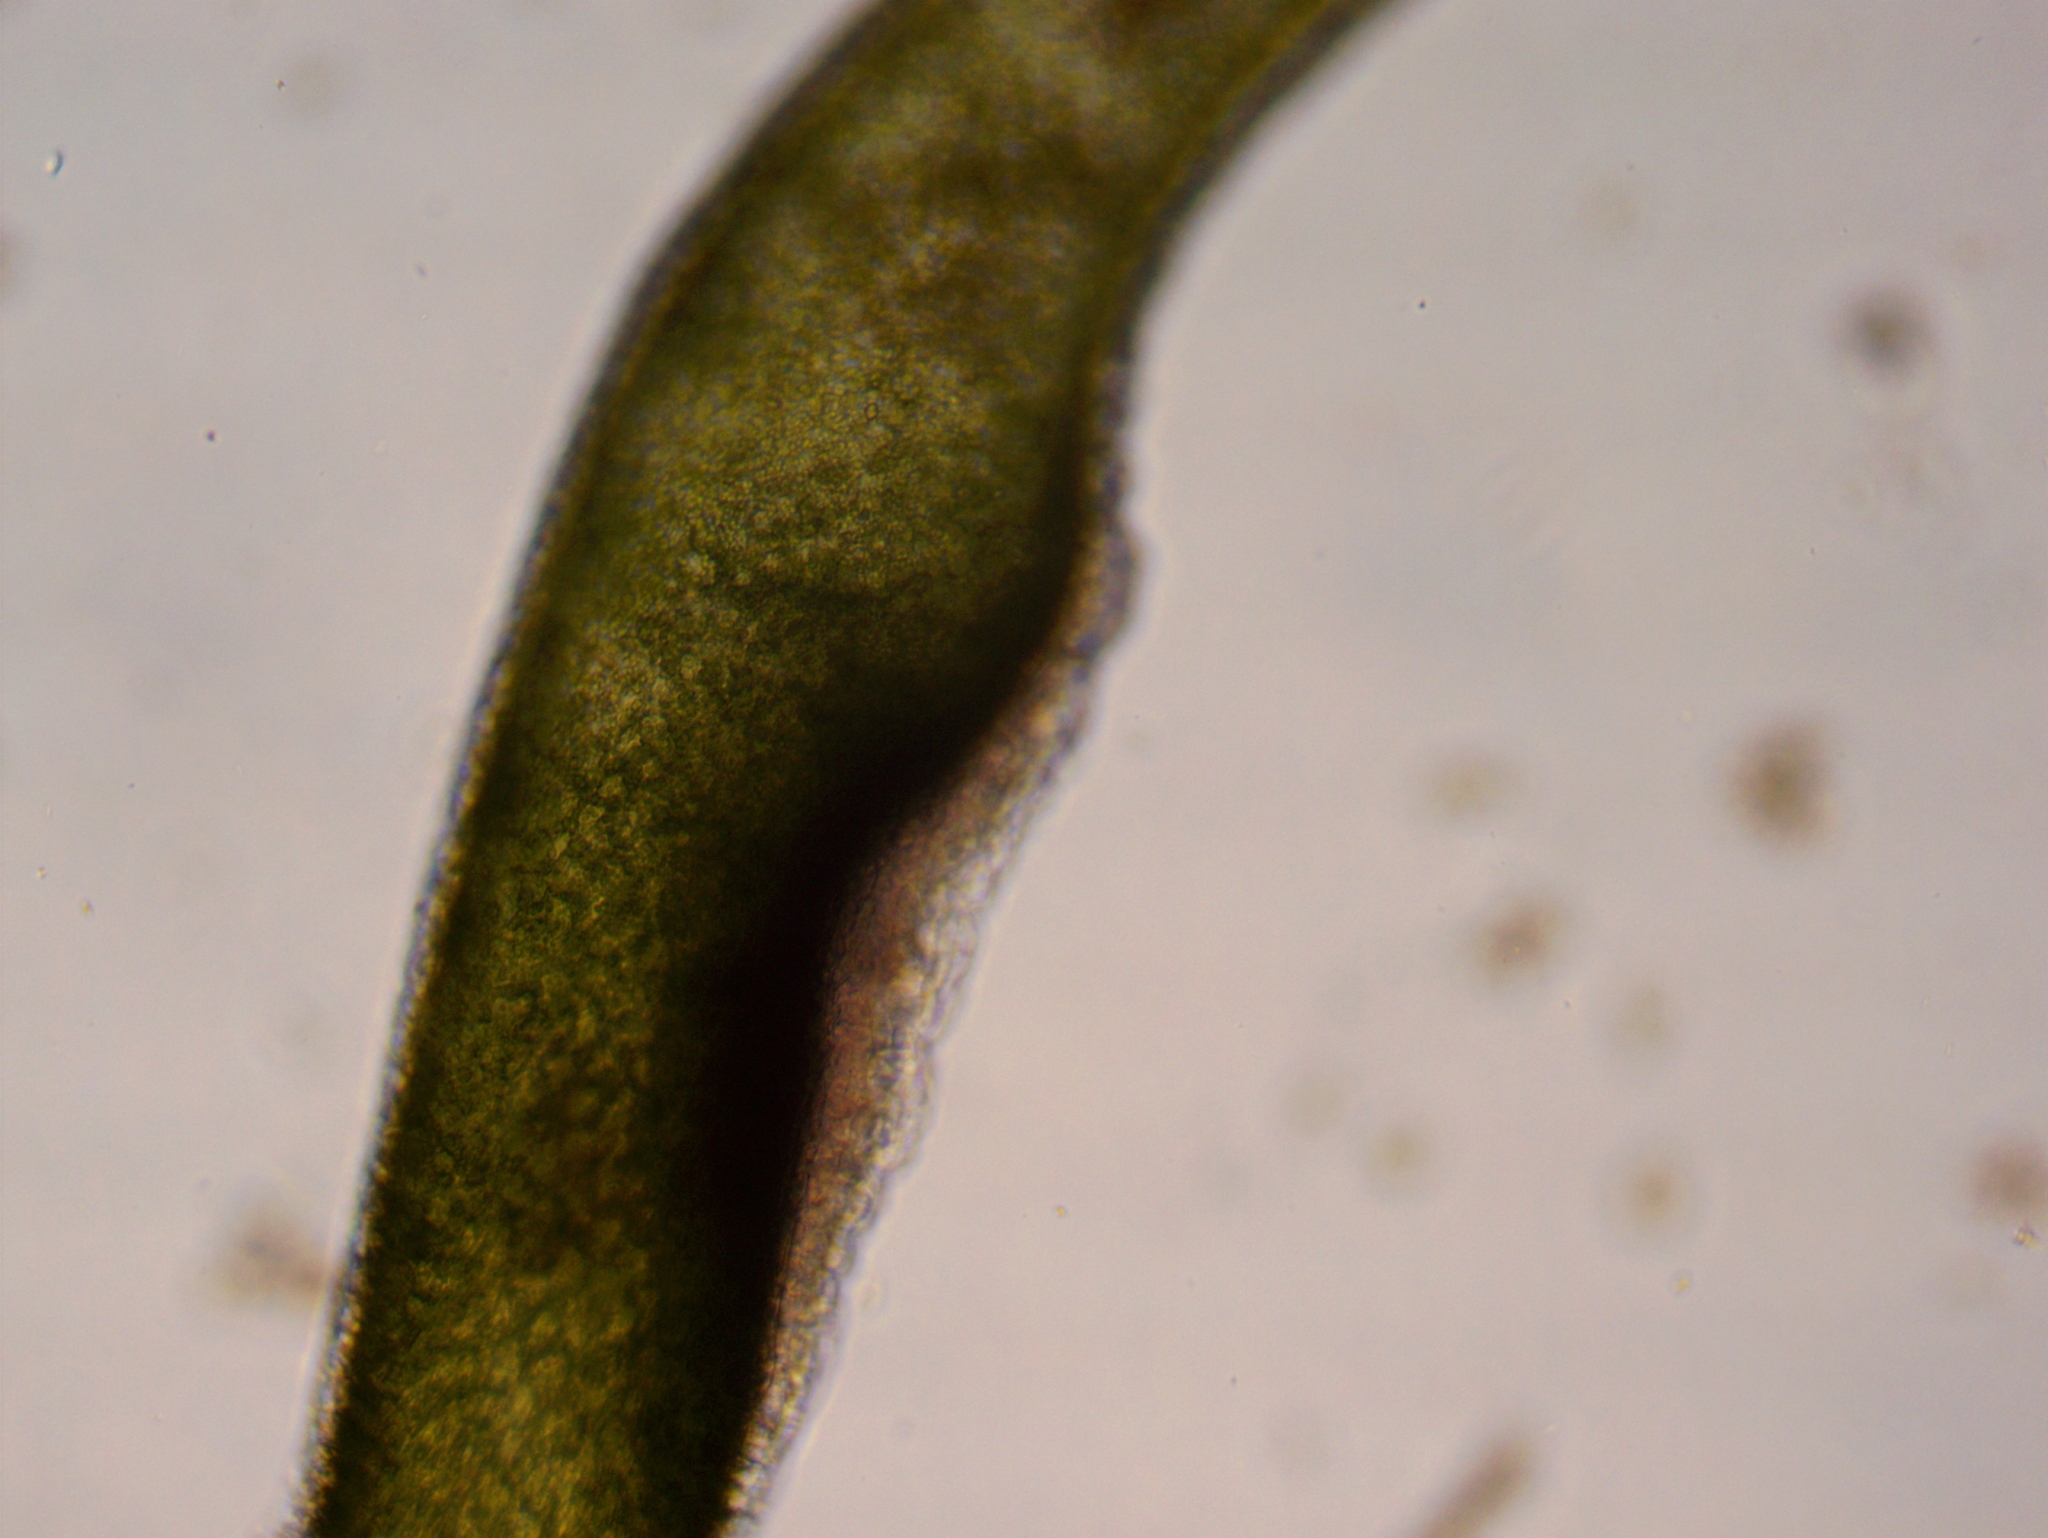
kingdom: Animalia
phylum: Cnidaria
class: Hydrozoa
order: Anthoathecata
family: Hydridae
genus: Hydra
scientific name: Hydra viridissima
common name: Green hydra
